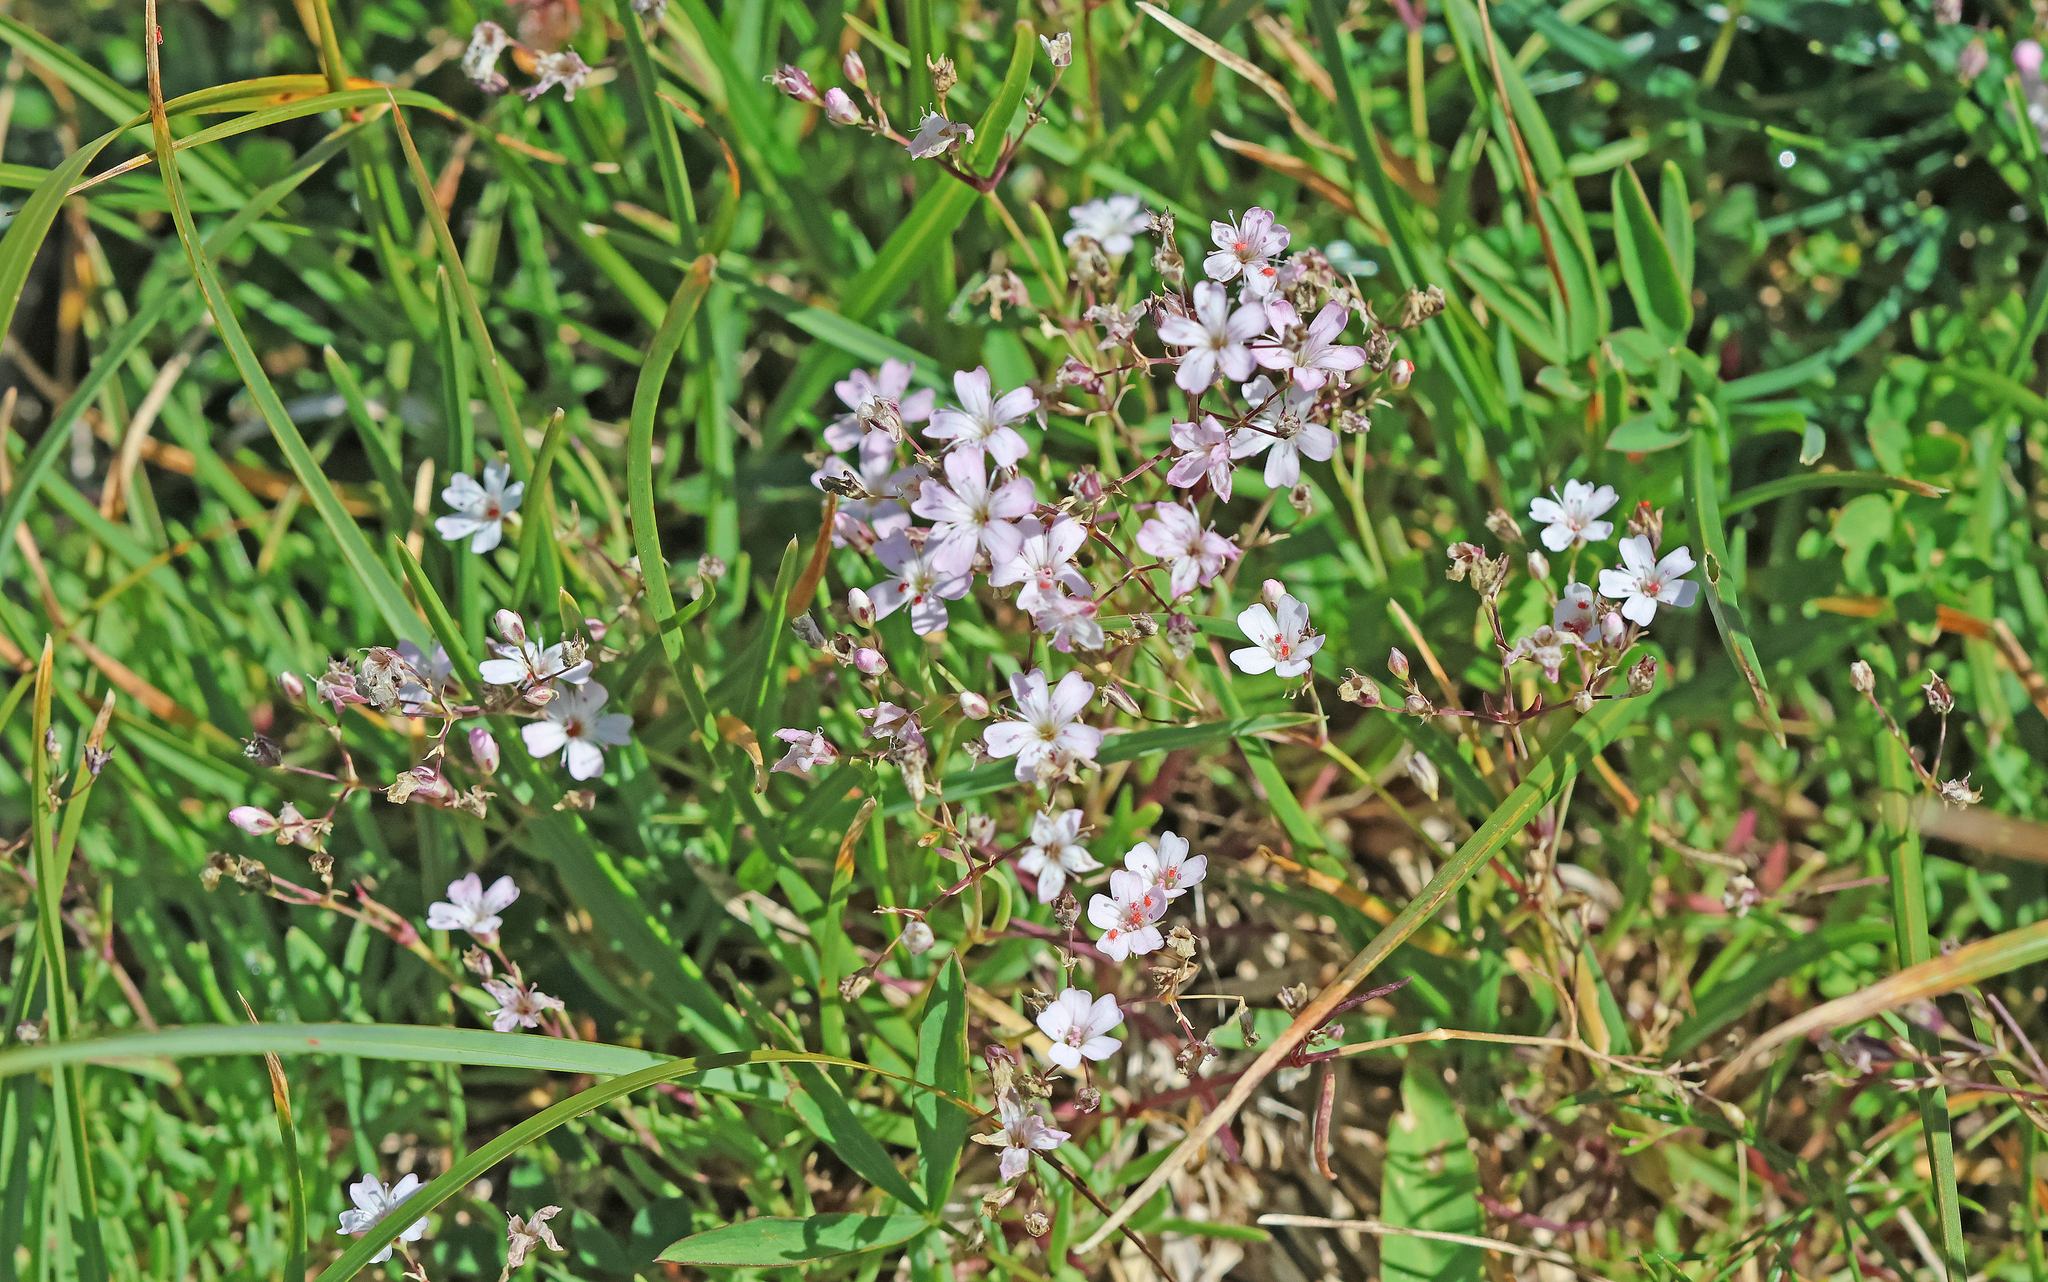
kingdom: Plantae
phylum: Tracheophyta
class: Magnoliopsida
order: Caryophyllales
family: Caryophyllaceae
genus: Gypsophila
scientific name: Gypsophila repens
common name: Creeping baby's-breath
